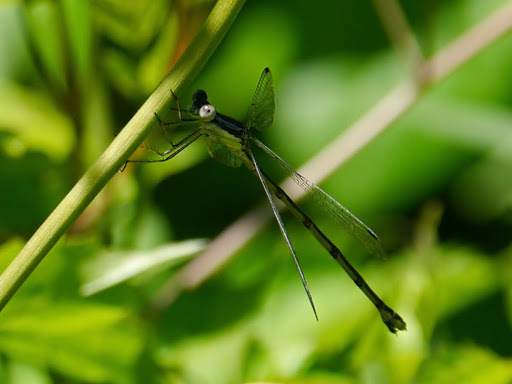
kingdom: Animalia
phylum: Arthropoda
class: Insecta
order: Odonata
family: Lestidae
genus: Lestes
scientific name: Lestes rectangularis
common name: Slender spreadwing
